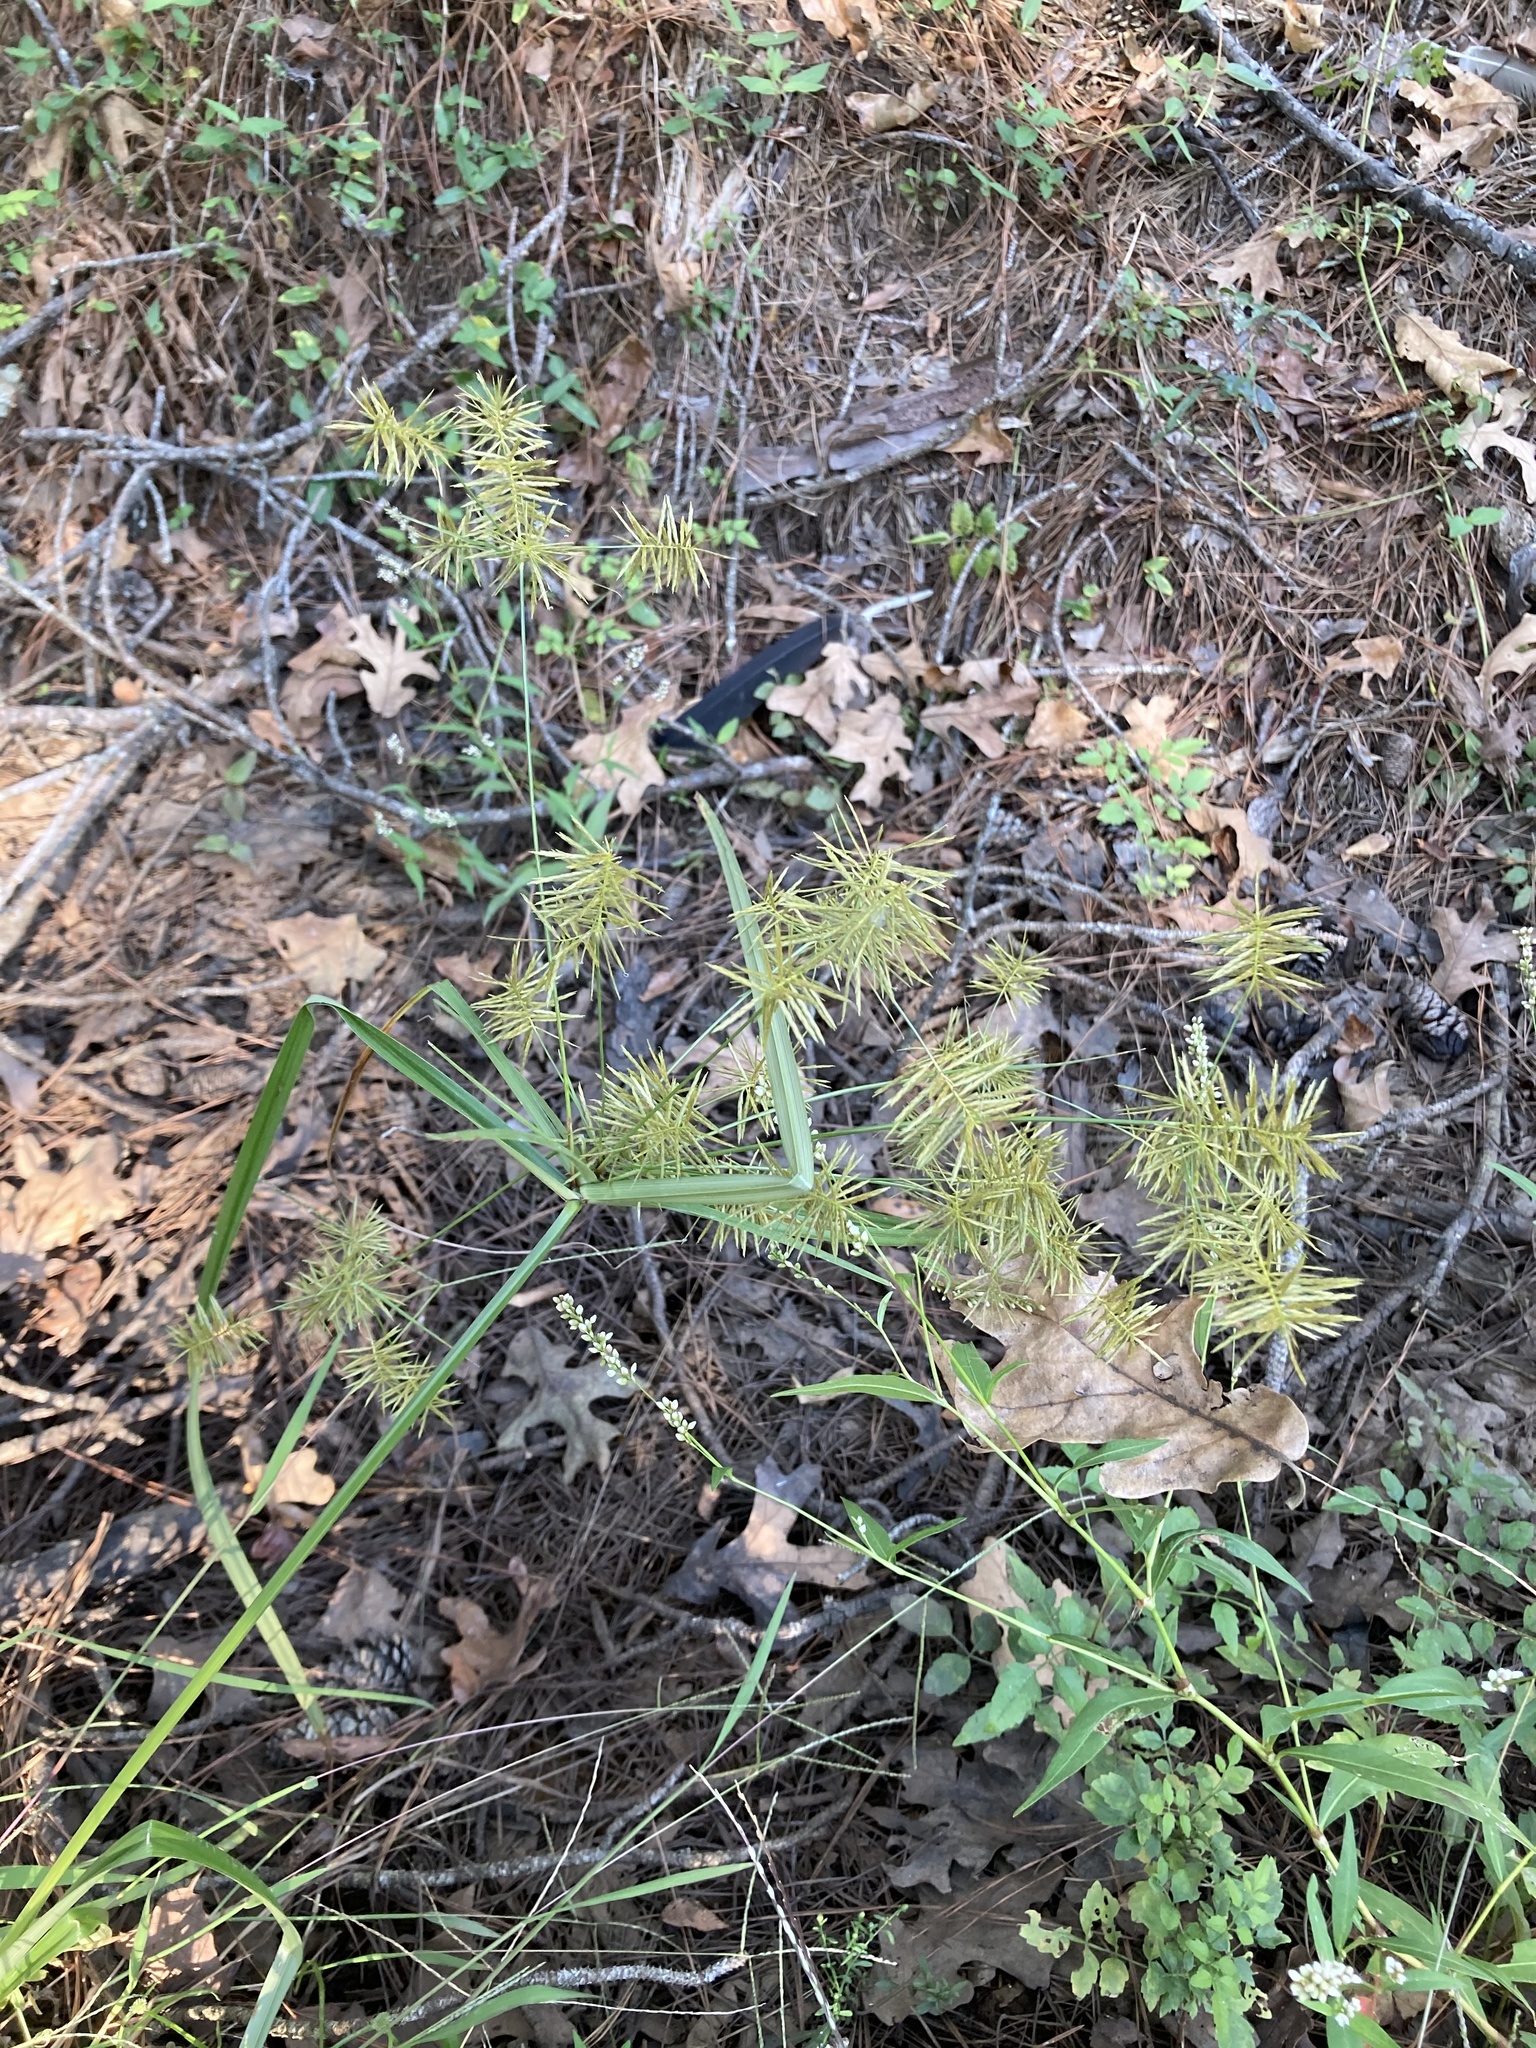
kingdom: Plantae
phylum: Tracheophyta
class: Liliopsida
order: Poales
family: Cyperaceae
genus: Cyperus
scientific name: Cyperus strigosus
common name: False nutsedge
